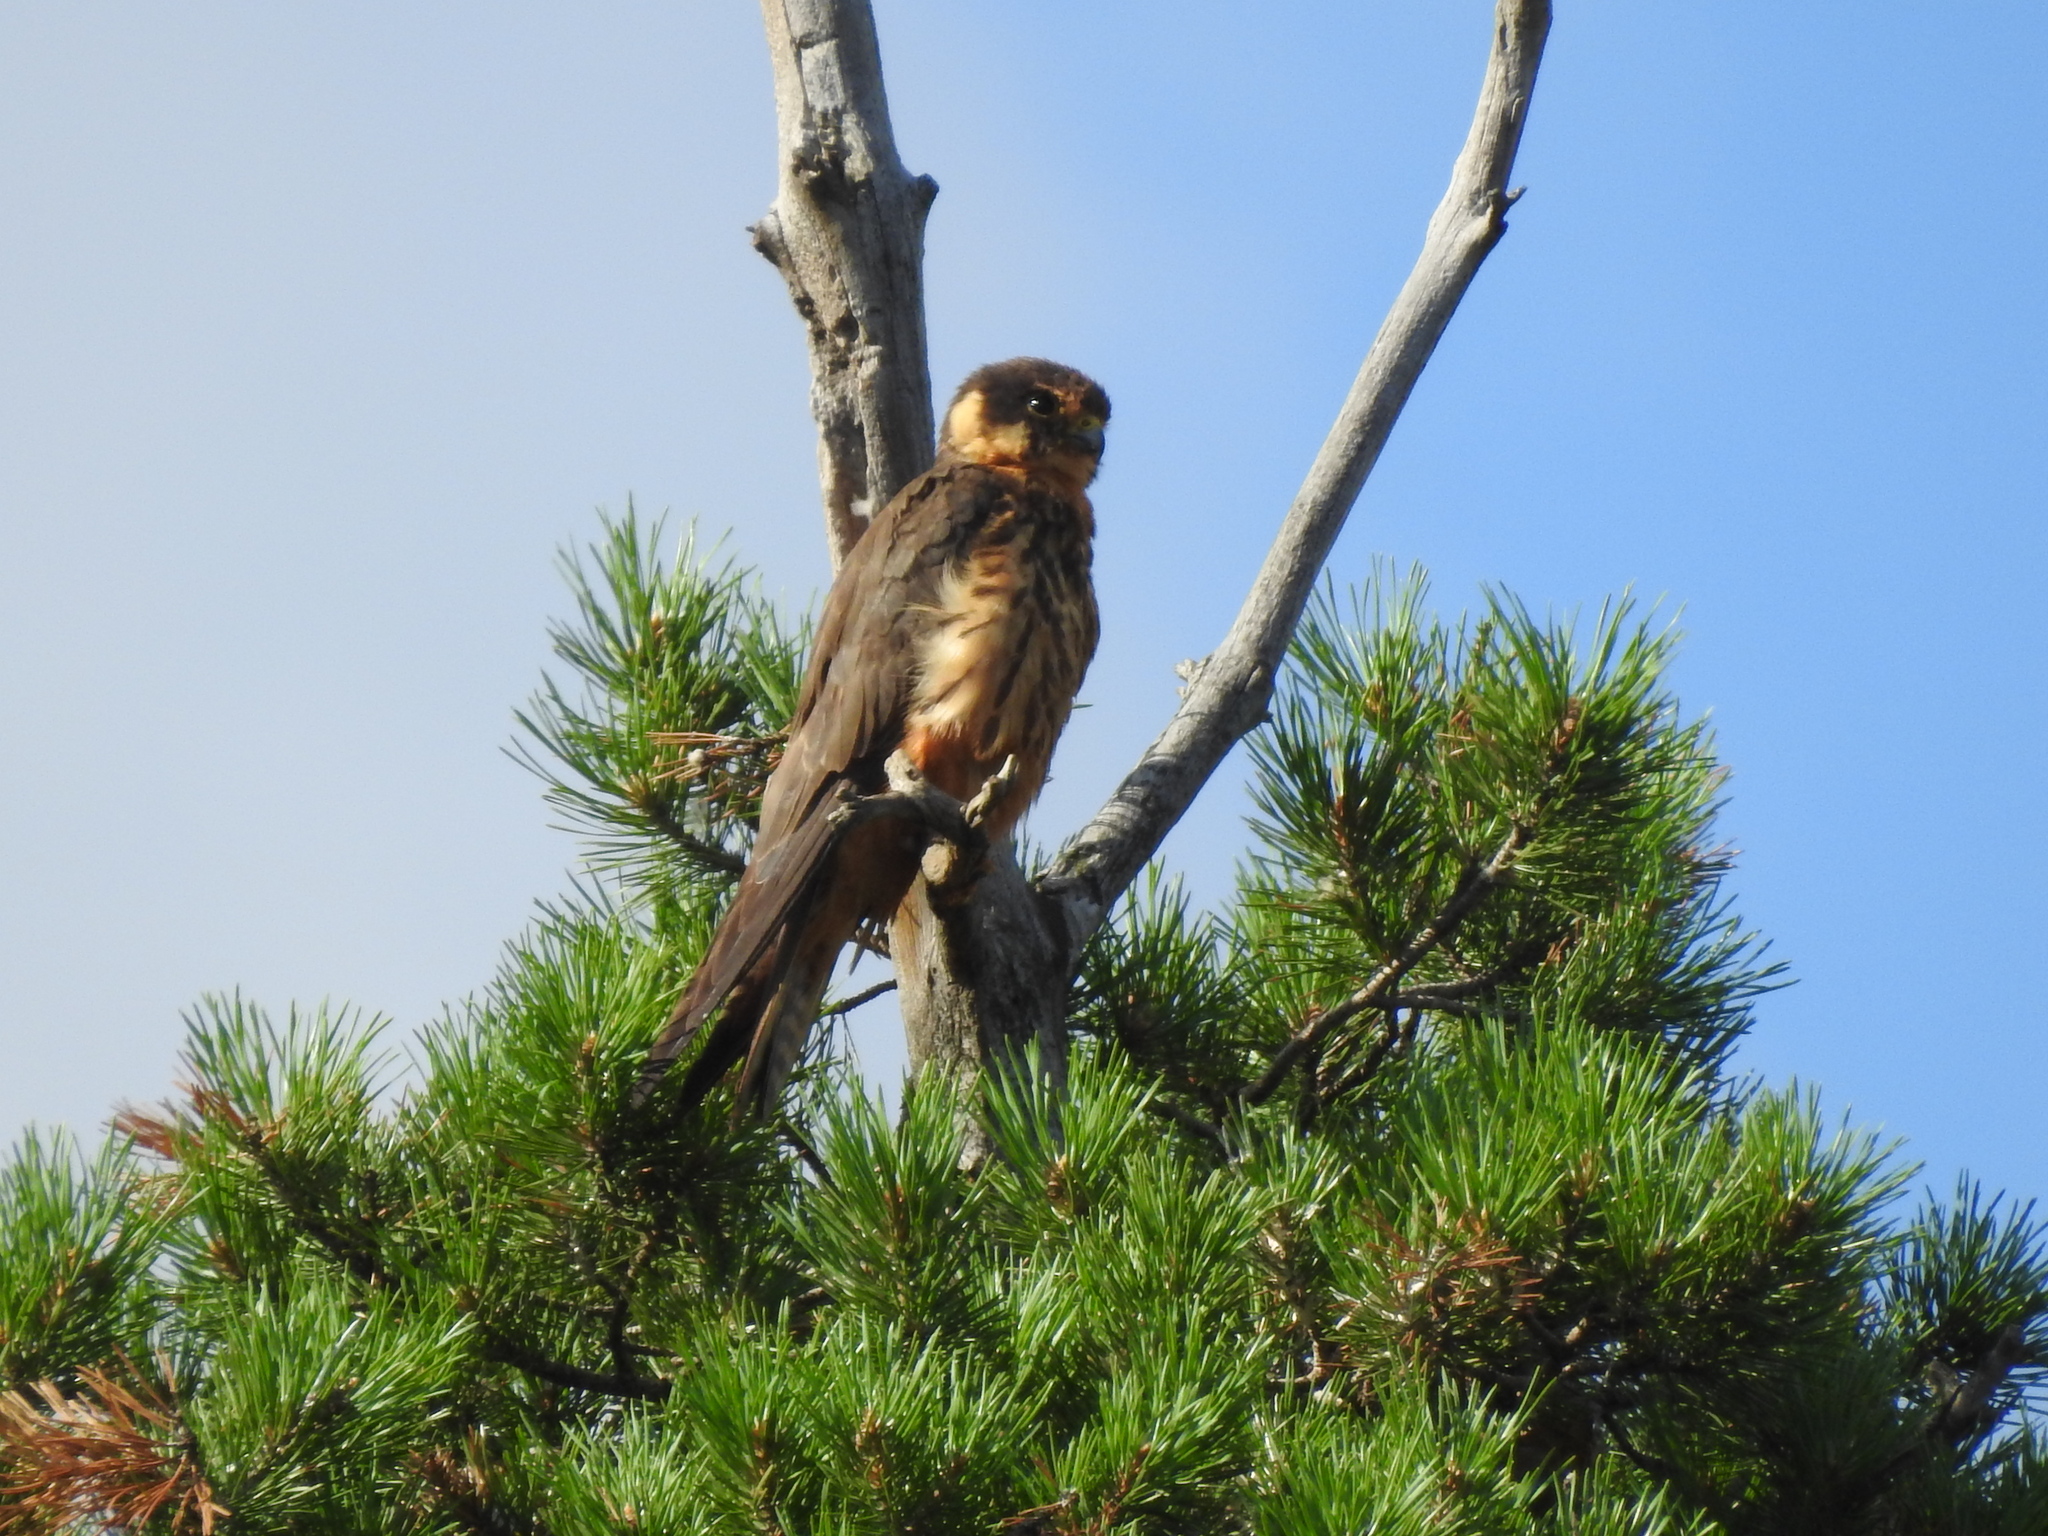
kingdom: Animalia
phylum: Chordata
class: Aves
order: Falconiformes
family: Falconidae
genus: Falco
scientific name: Falco subbuteo
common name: Eurasian hobby
